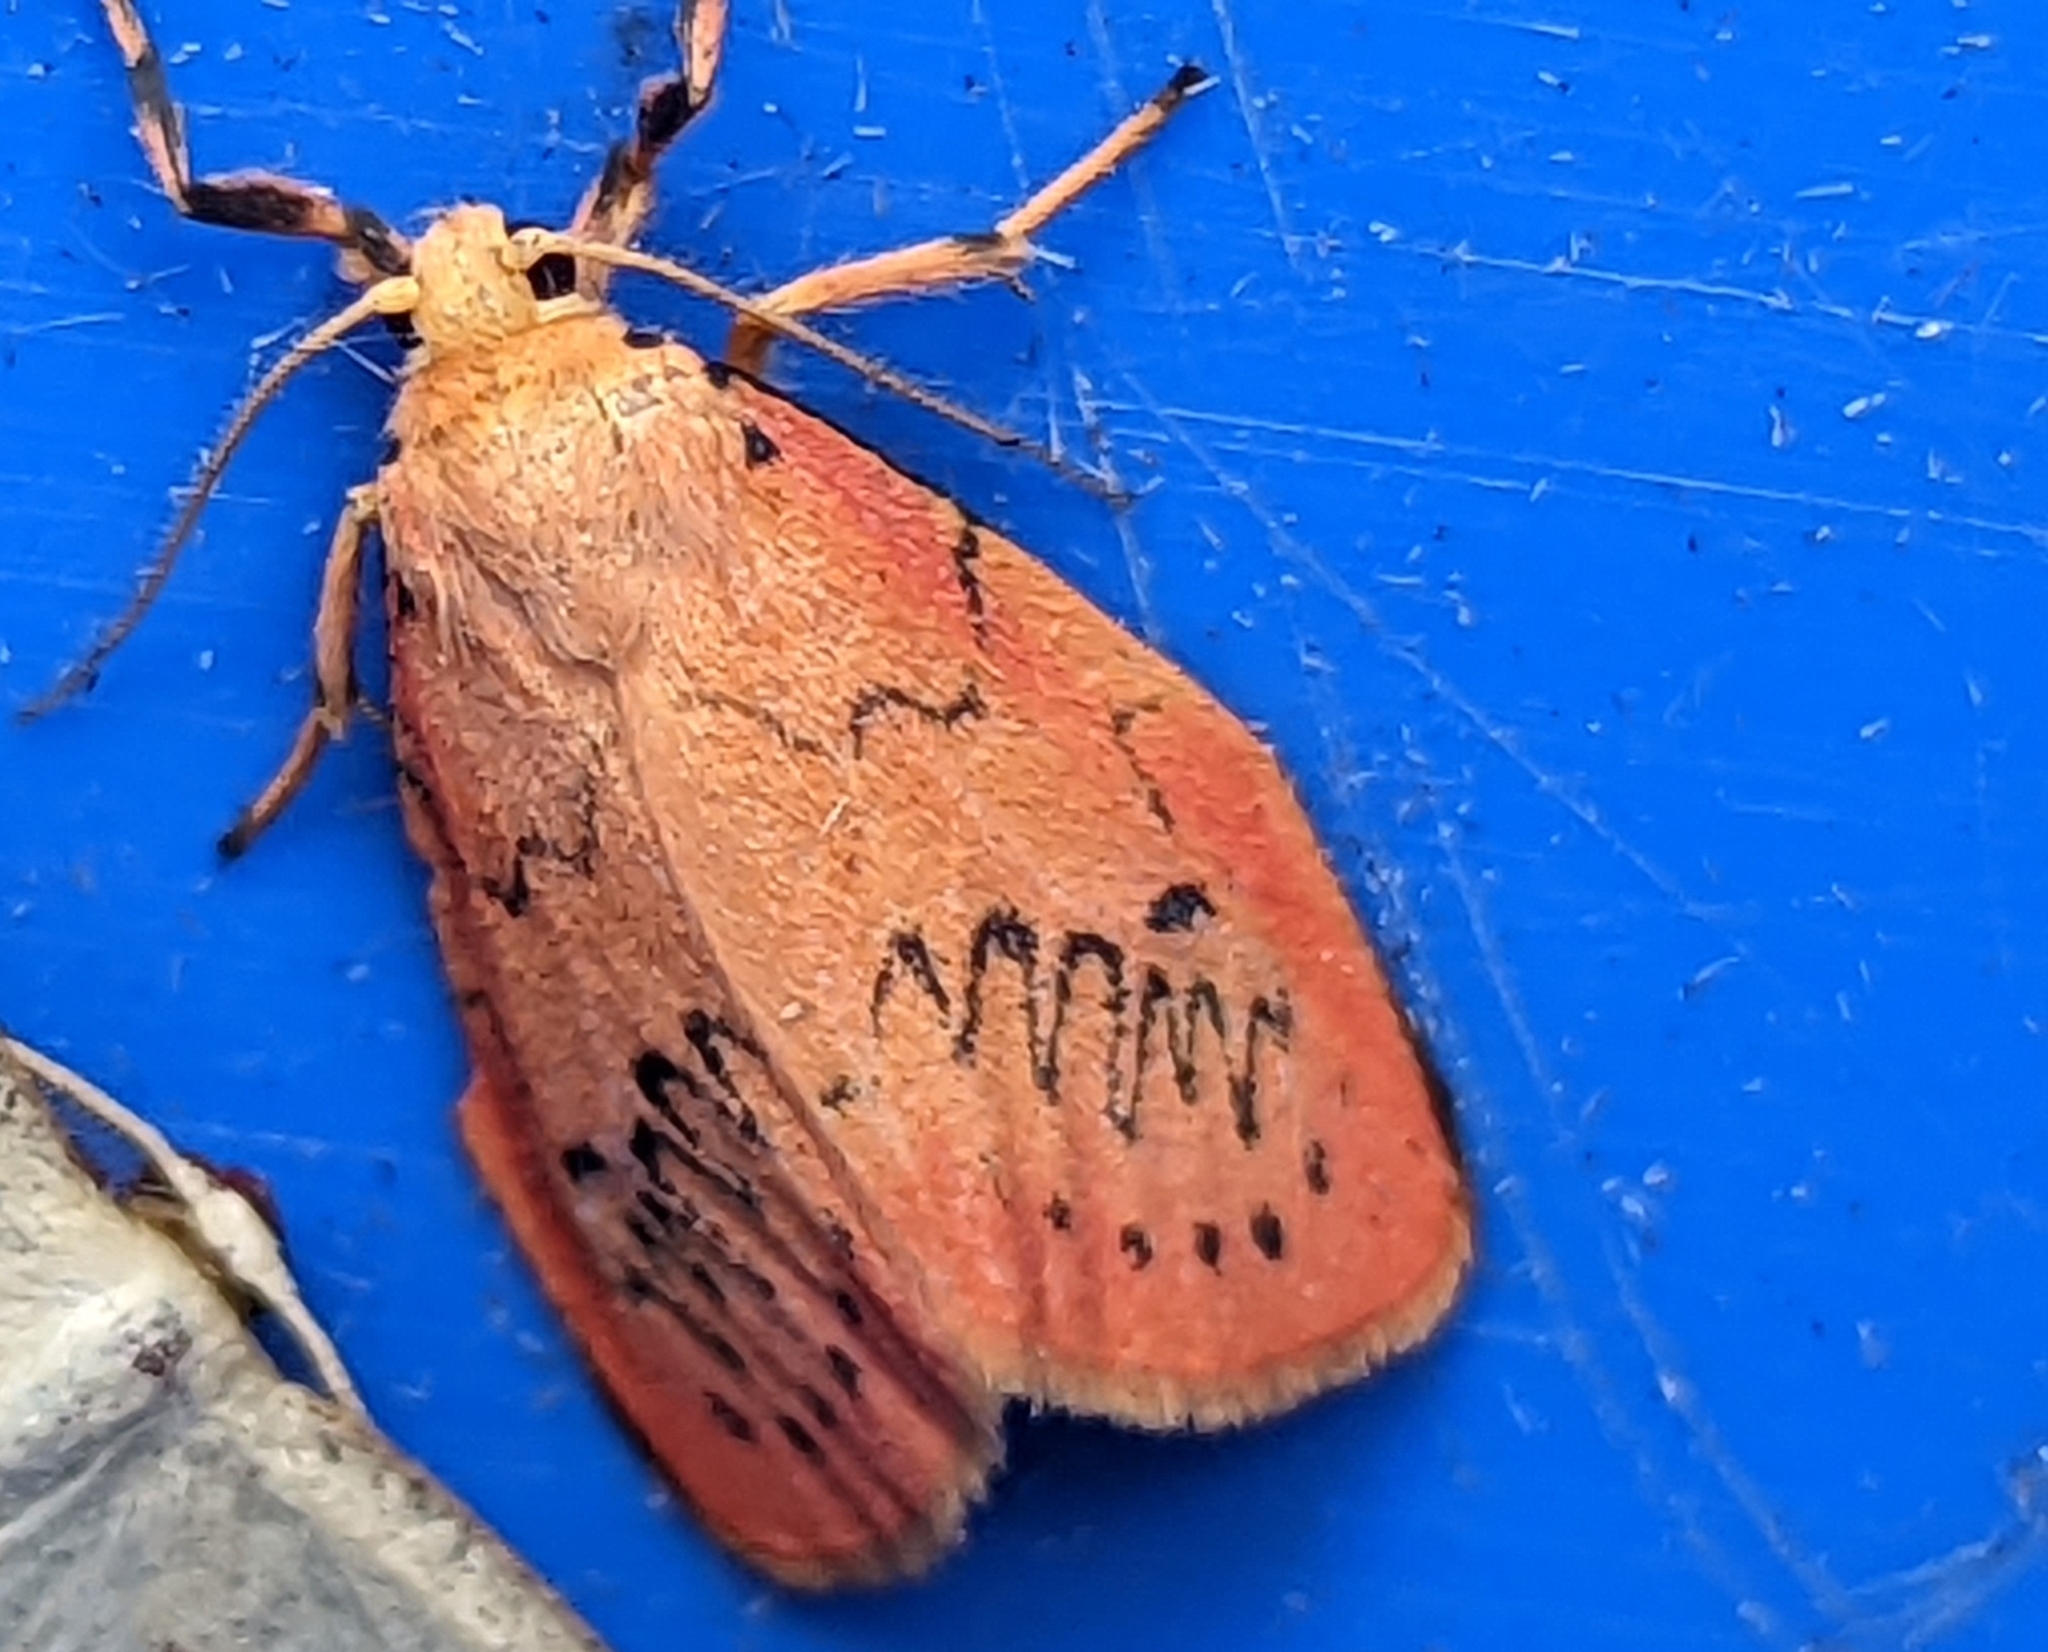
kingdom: Animalia
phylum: Arthropoda
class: Insecta
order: Lepidoptera
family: Erebidae
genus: Miltochrista
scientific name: Miltochrista miniata
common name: Rosy footman
